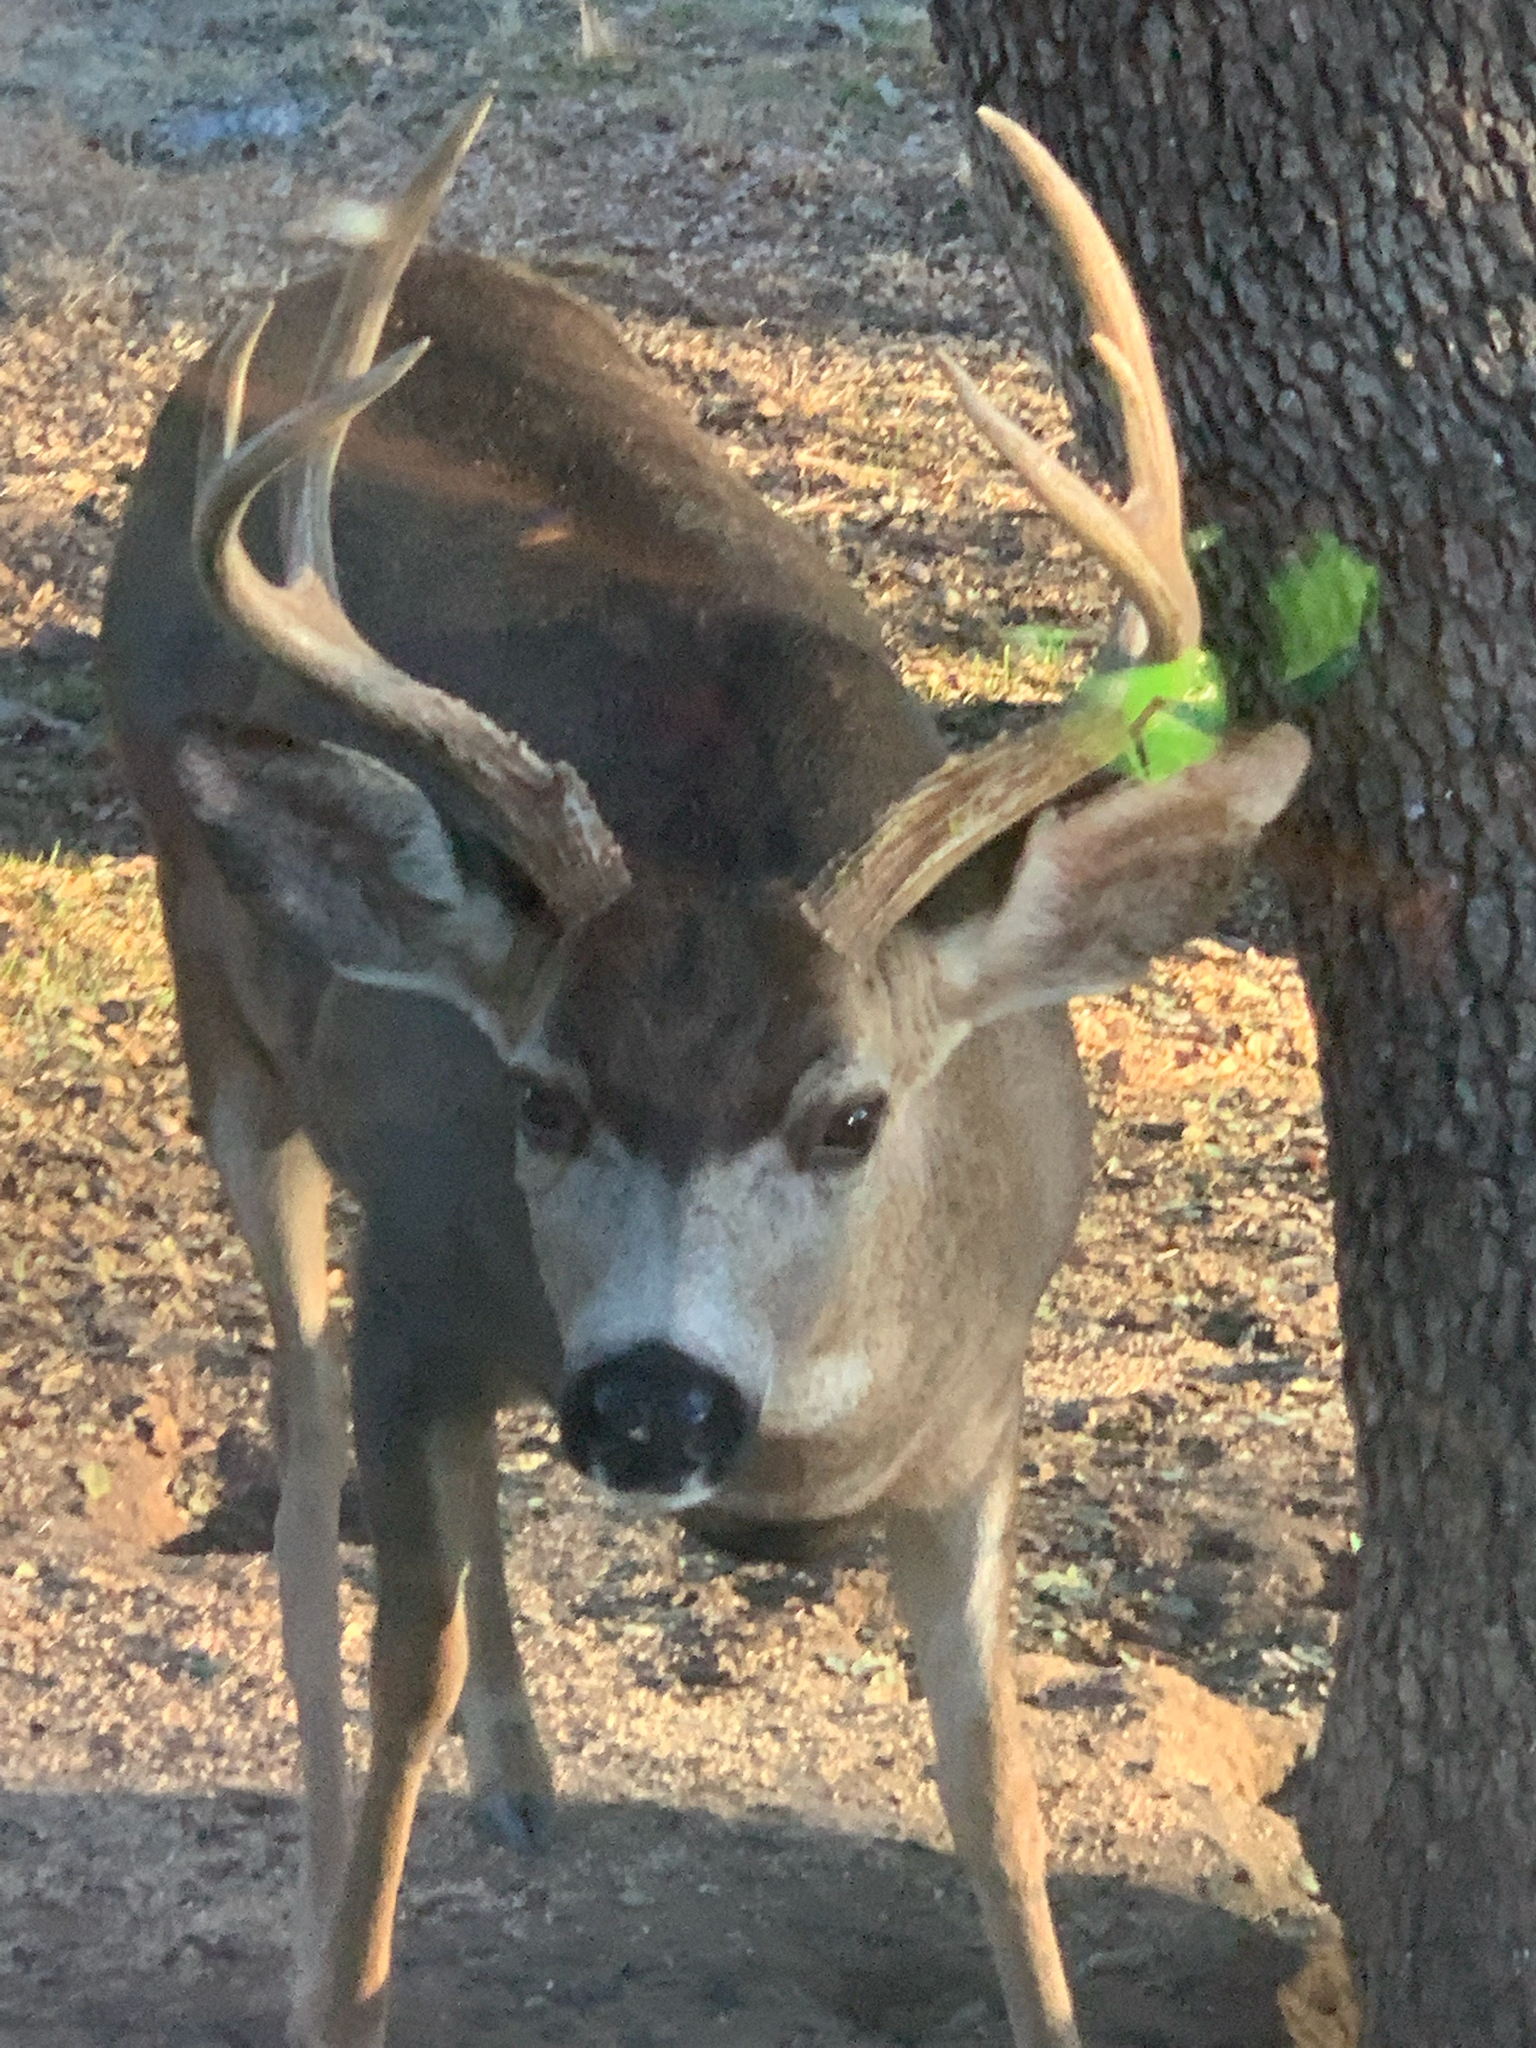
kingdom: Animalia
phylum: Chordata
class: Mammalia
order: Artiodactyla
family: Cervidae
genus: Odocoileus
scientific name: Odocoileus hemionus
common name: Mule deer
